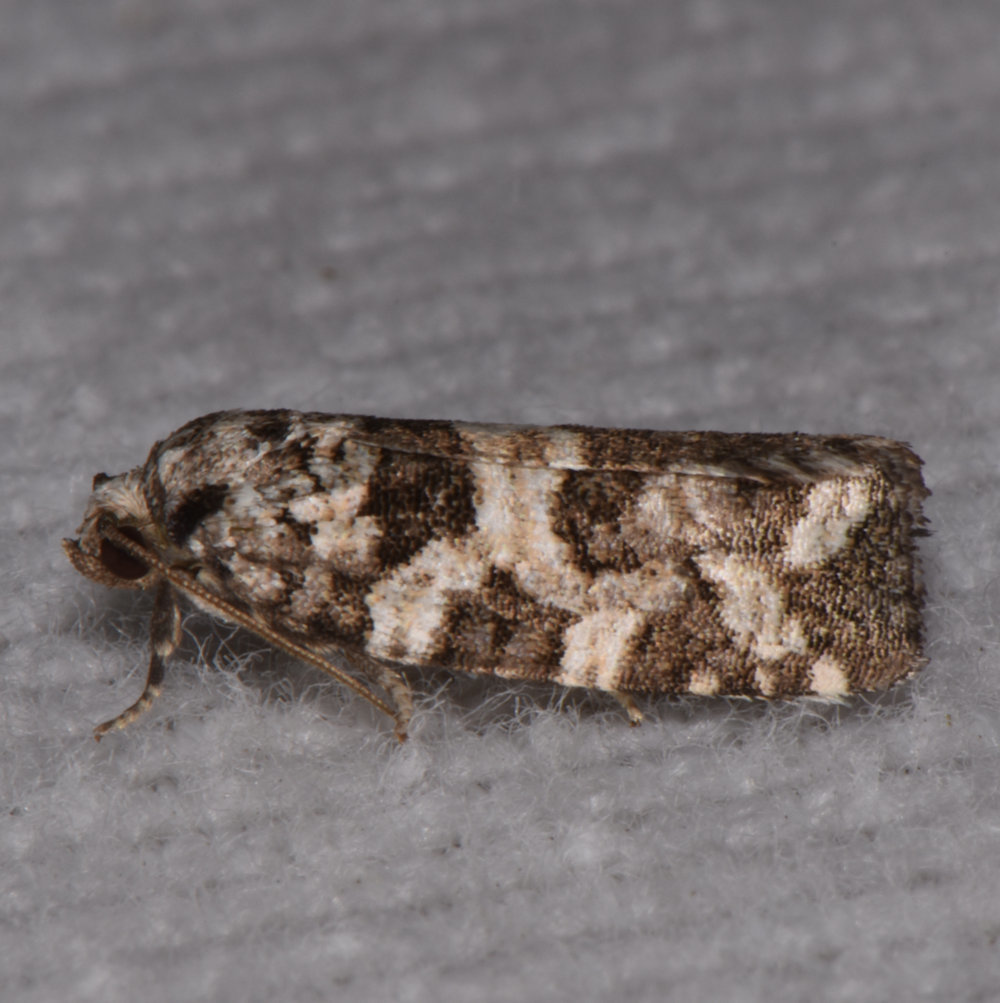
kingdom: Animalia
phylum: Arthropoda
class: Insecta
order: Lepidoptera
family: Tortricidae
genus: Archips
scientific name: Archips packardiana
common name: Spring spruce needle moth
